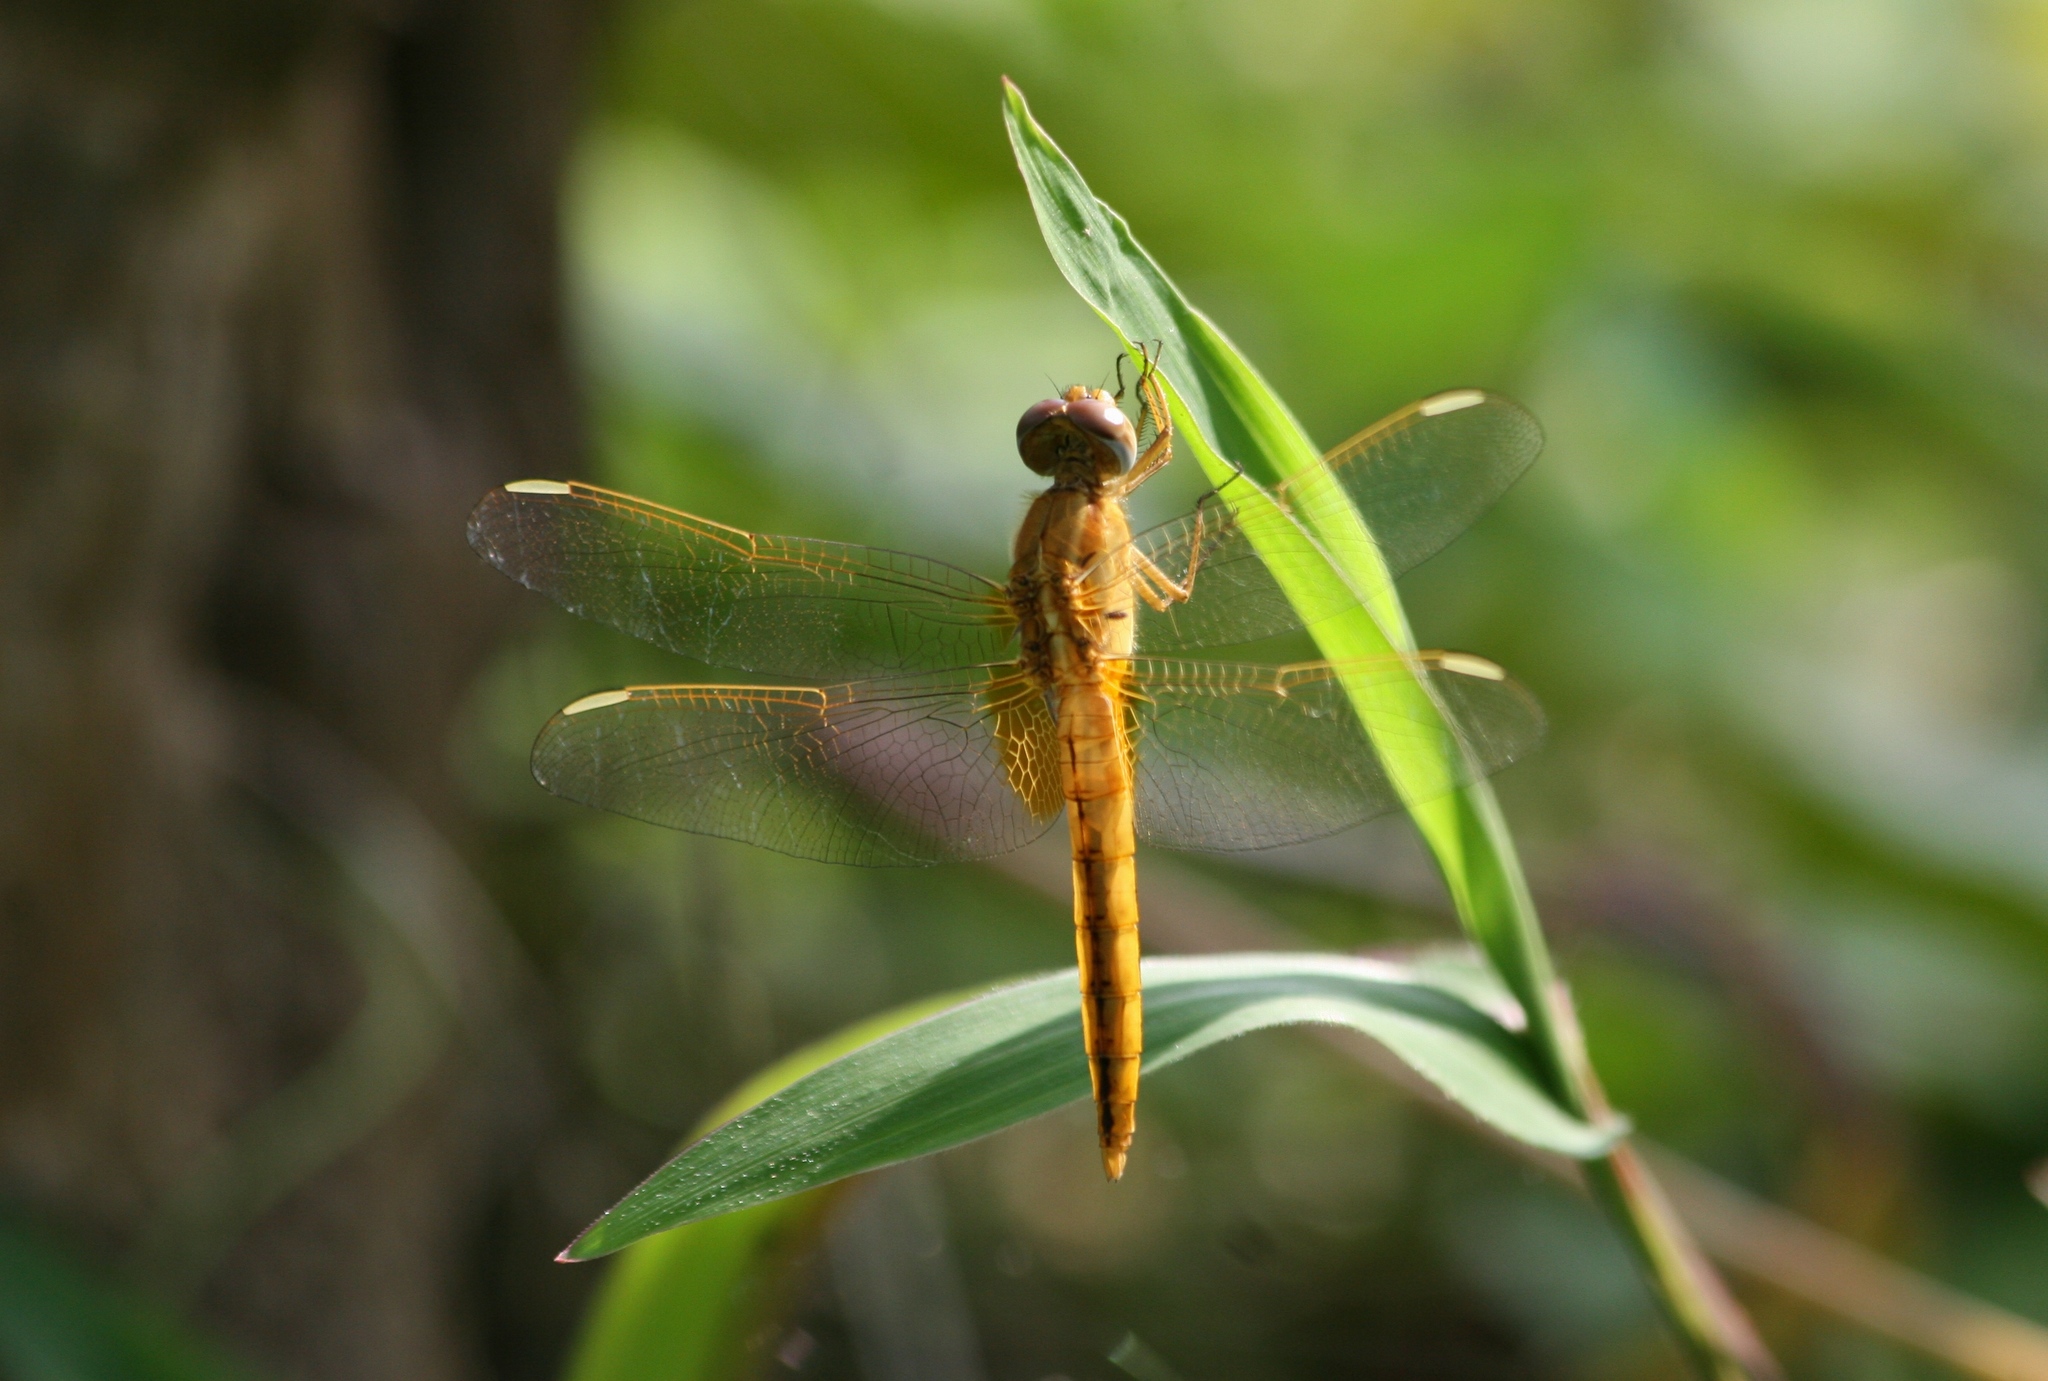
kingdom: Animalia
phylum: Arthropoda
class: Insecta
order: Odonata
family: Libellulidae
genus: Crocothemis
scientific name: Crocothemis erythraea
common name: Scarlet dragonfly
